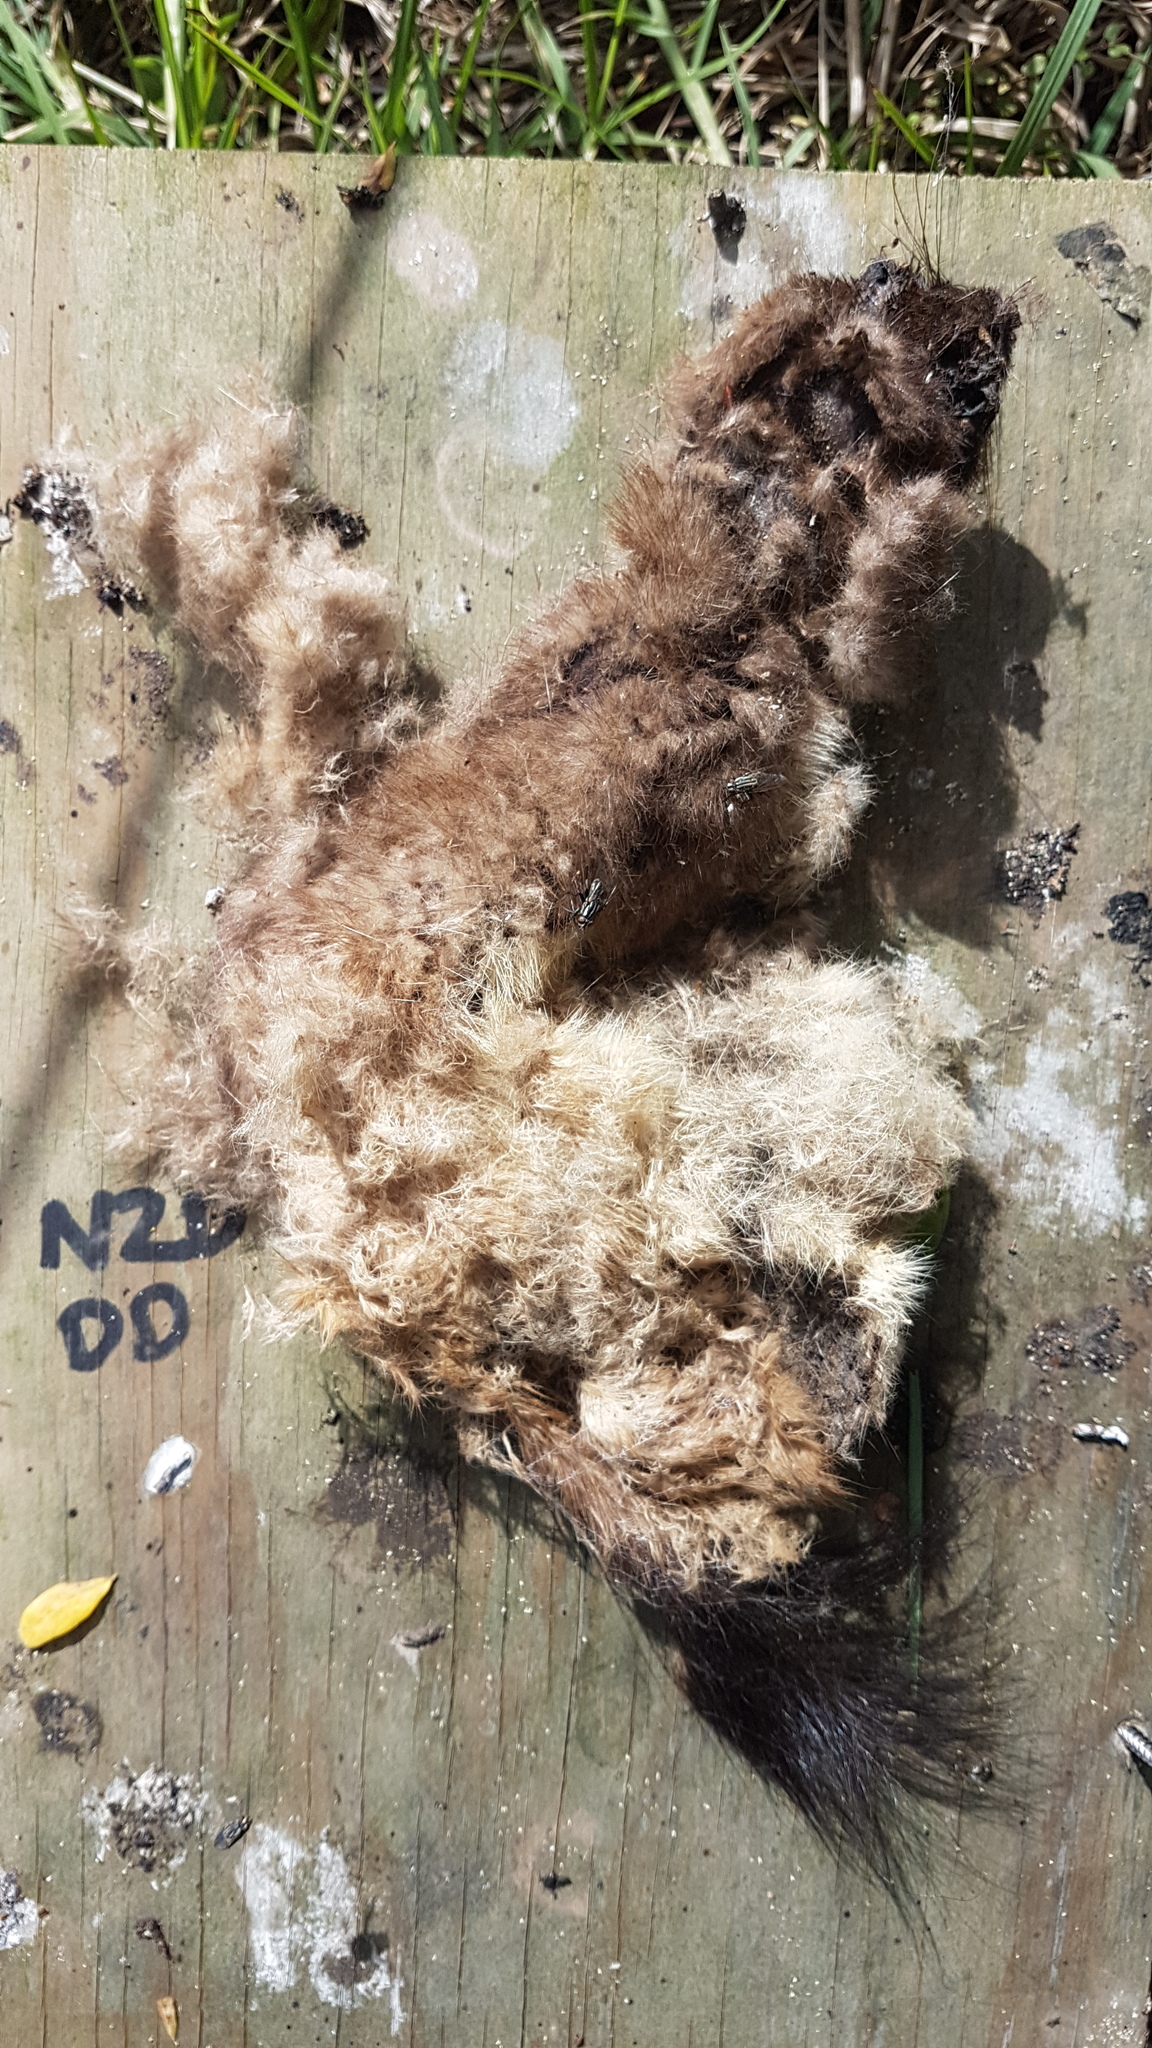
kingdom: Animalia
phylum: Chordata
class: Mammalia
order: Carnivora
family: Mustelidae
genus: Mustela
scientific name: Mustela erminea
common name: Stoat
